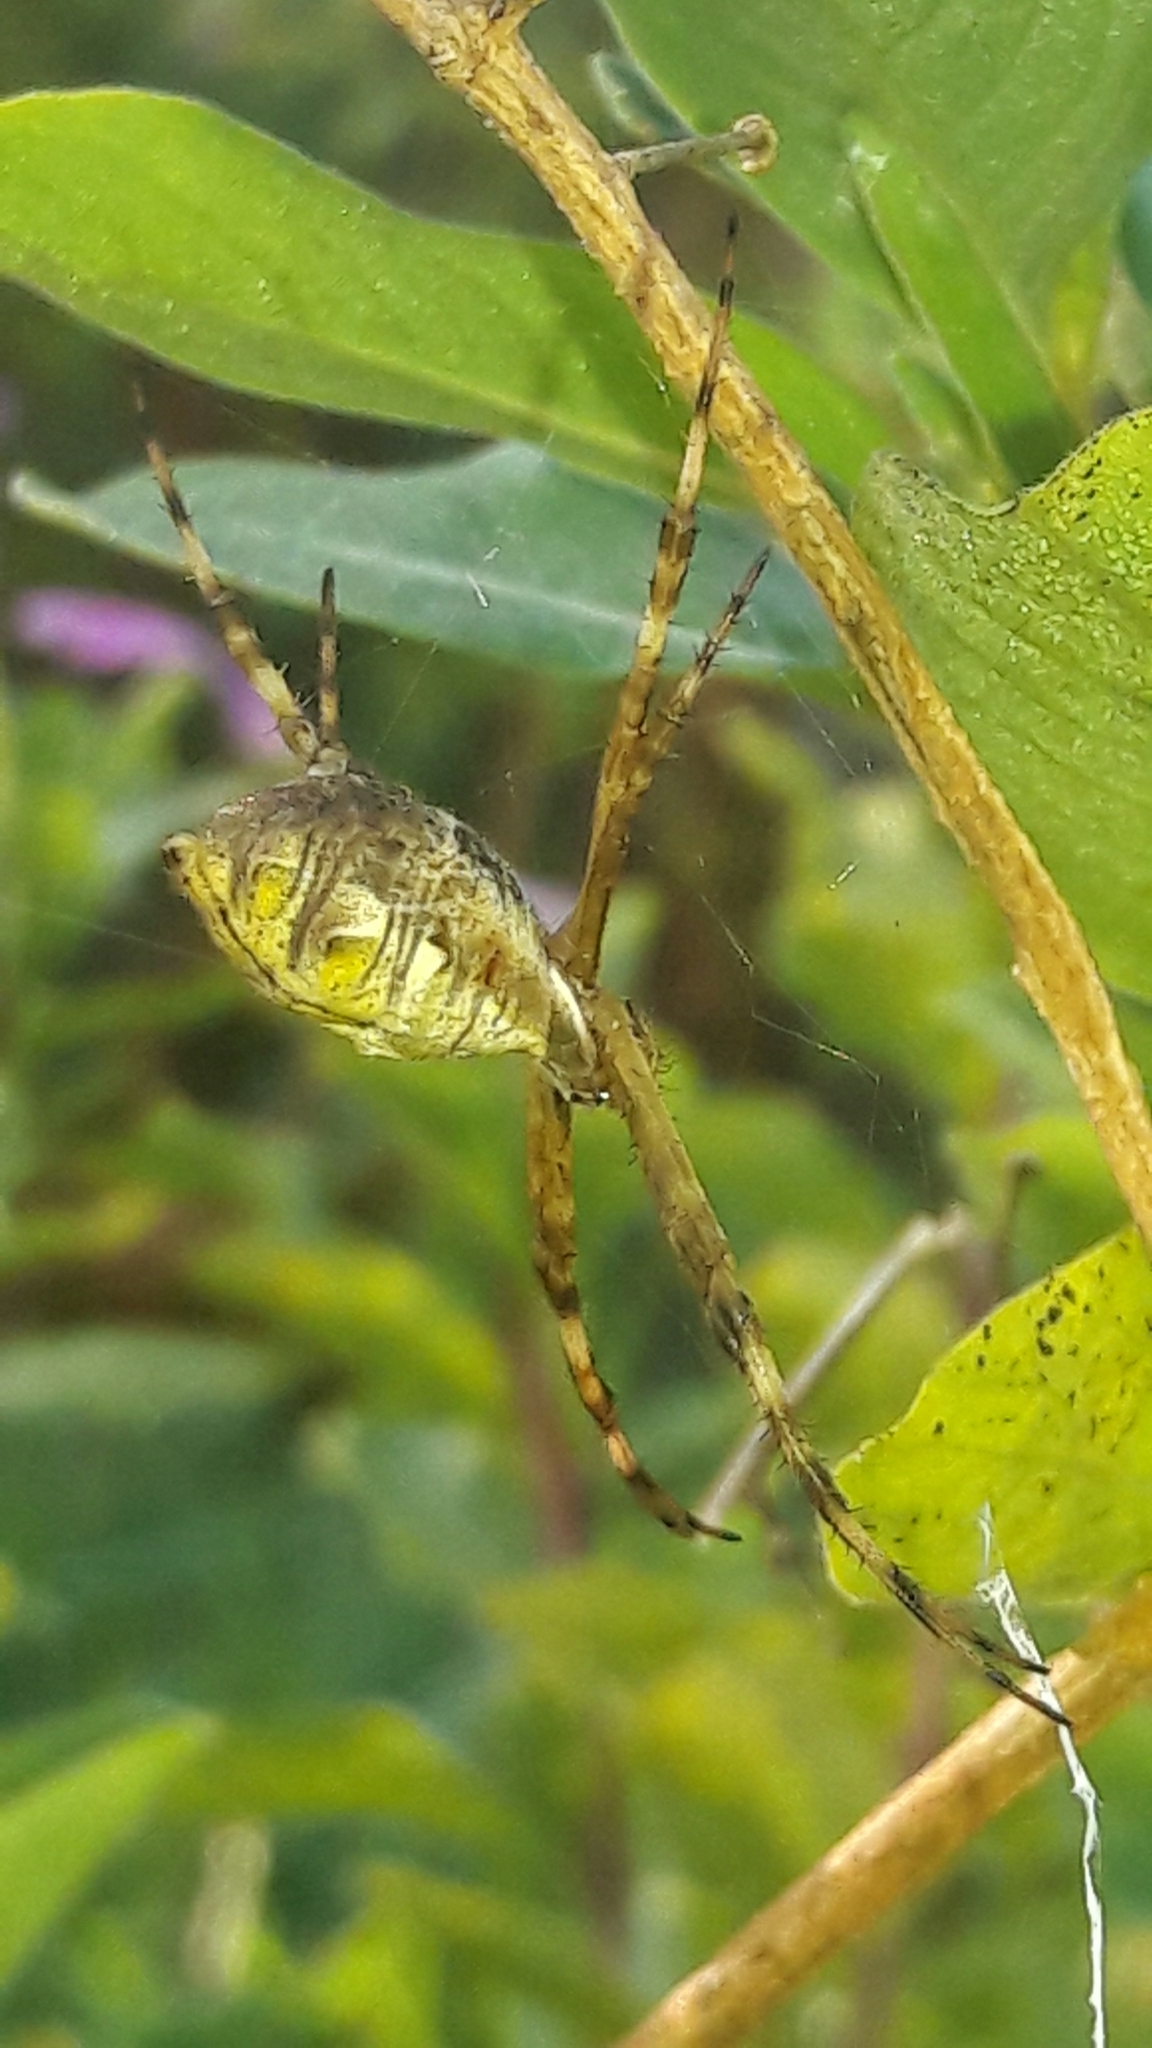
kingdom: Animalia
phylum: Arthropoda
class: Arachnida
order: Araneae
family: Araneidae
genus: Argiope
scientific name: Argiope argentata
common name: Orb weavers
